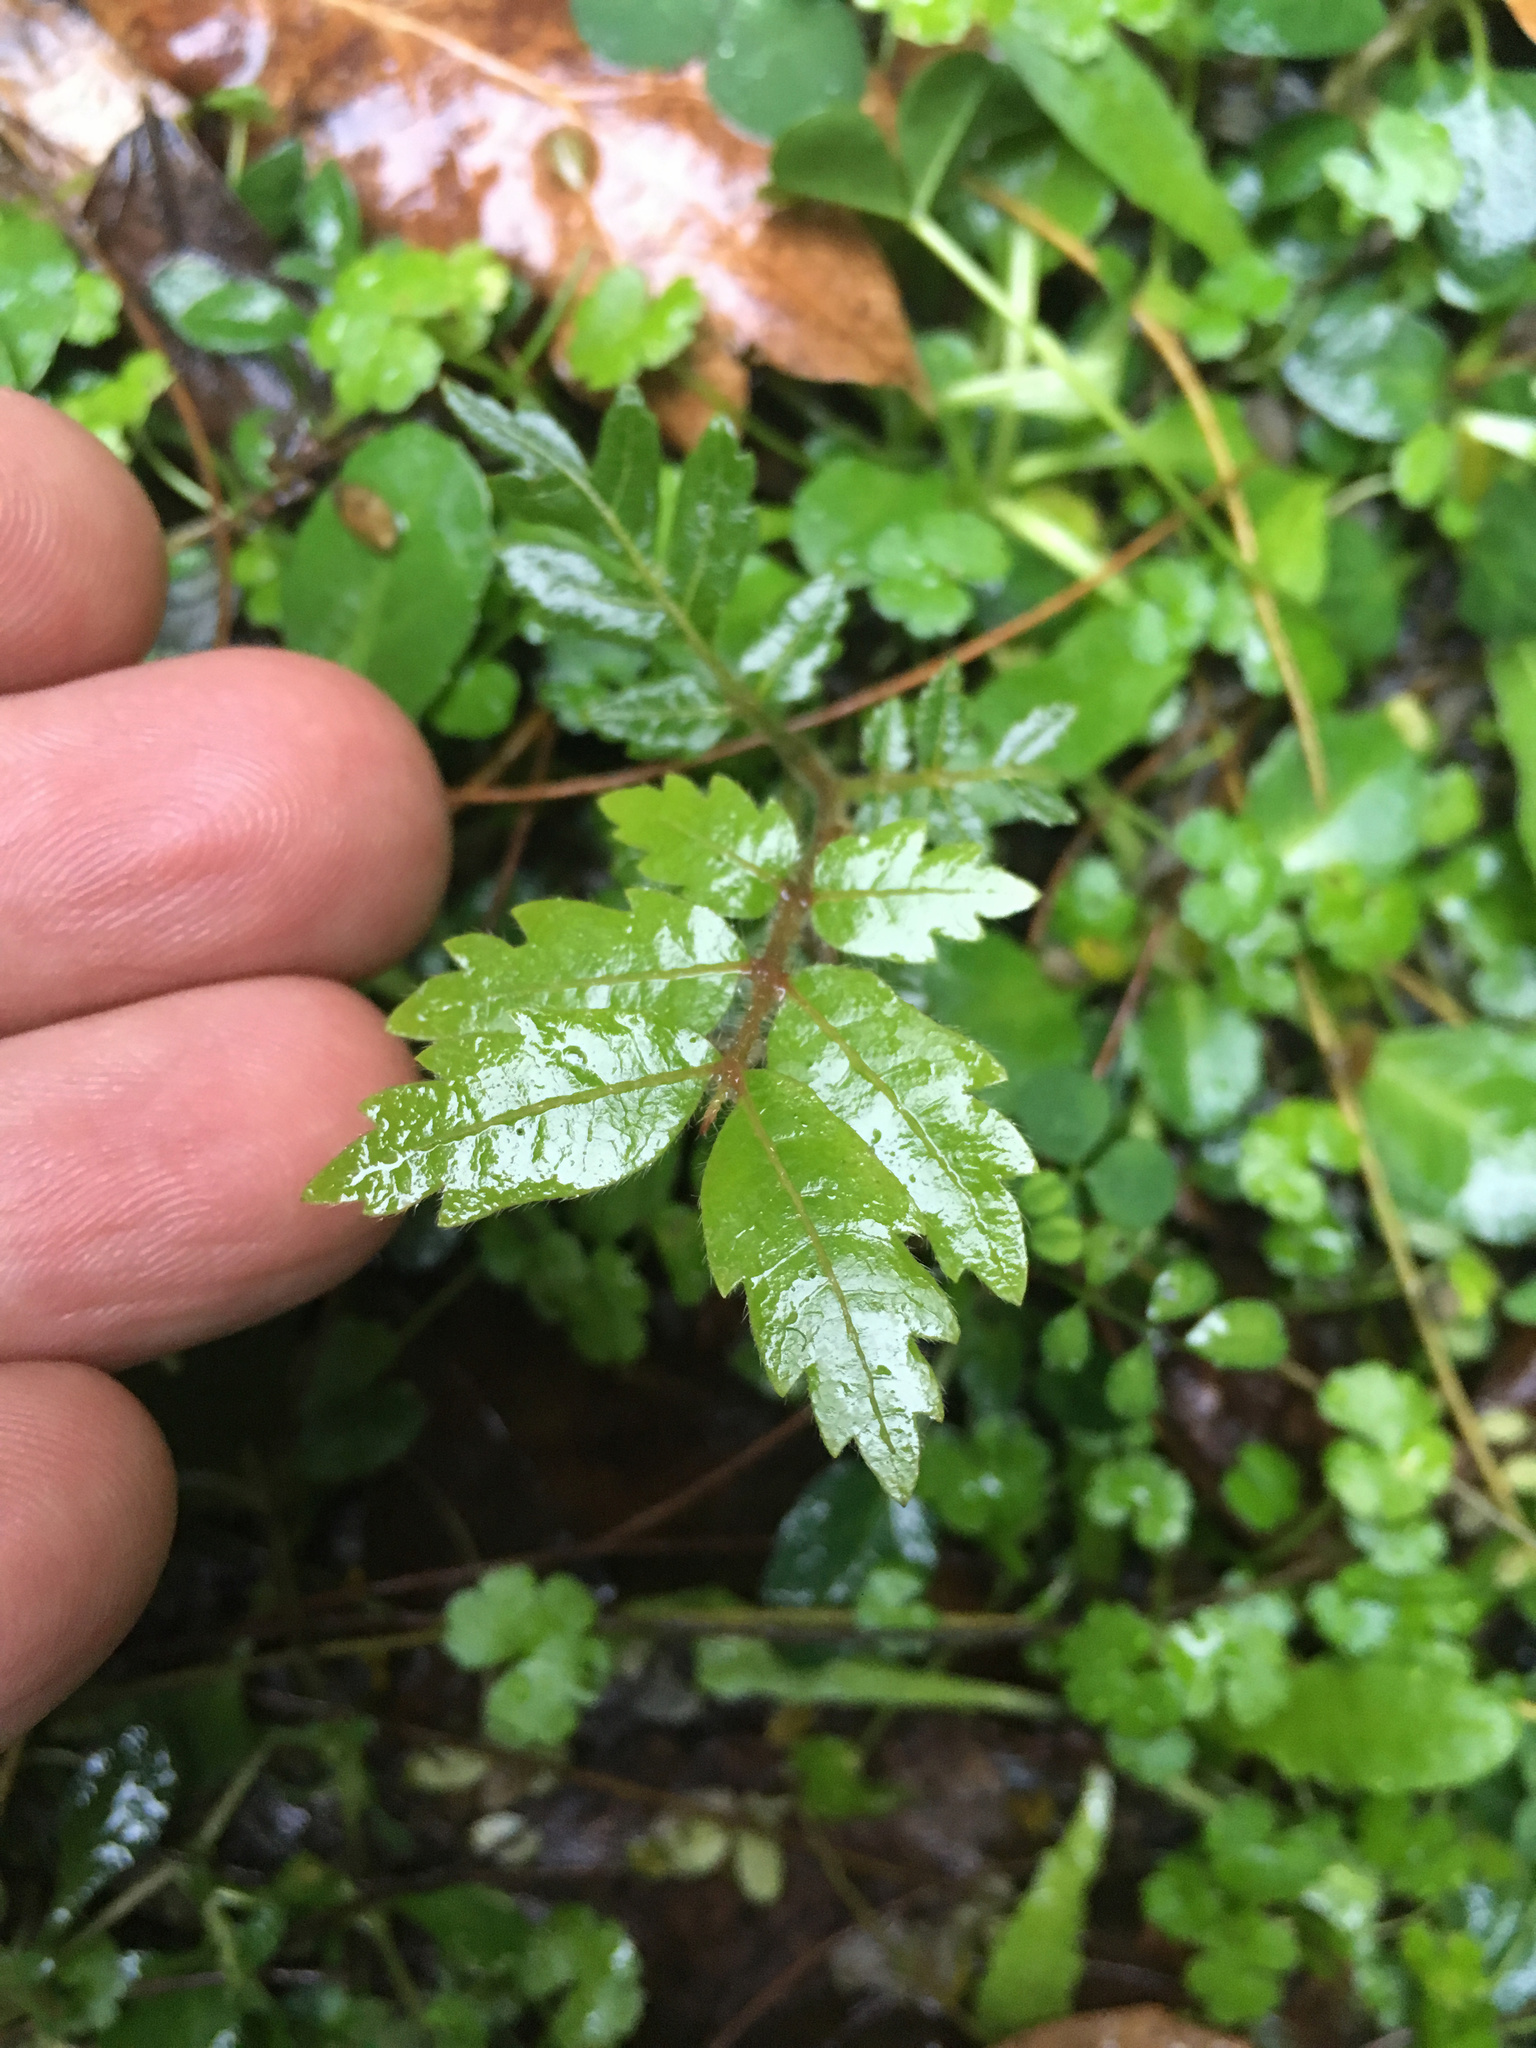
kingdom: Plantae
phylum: Tracheophyta
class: Magnoliopsida
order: Sapindales
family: Sapindaceae
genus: Alectryon
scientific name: Alectryon excelsus
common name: Three kings titoki
